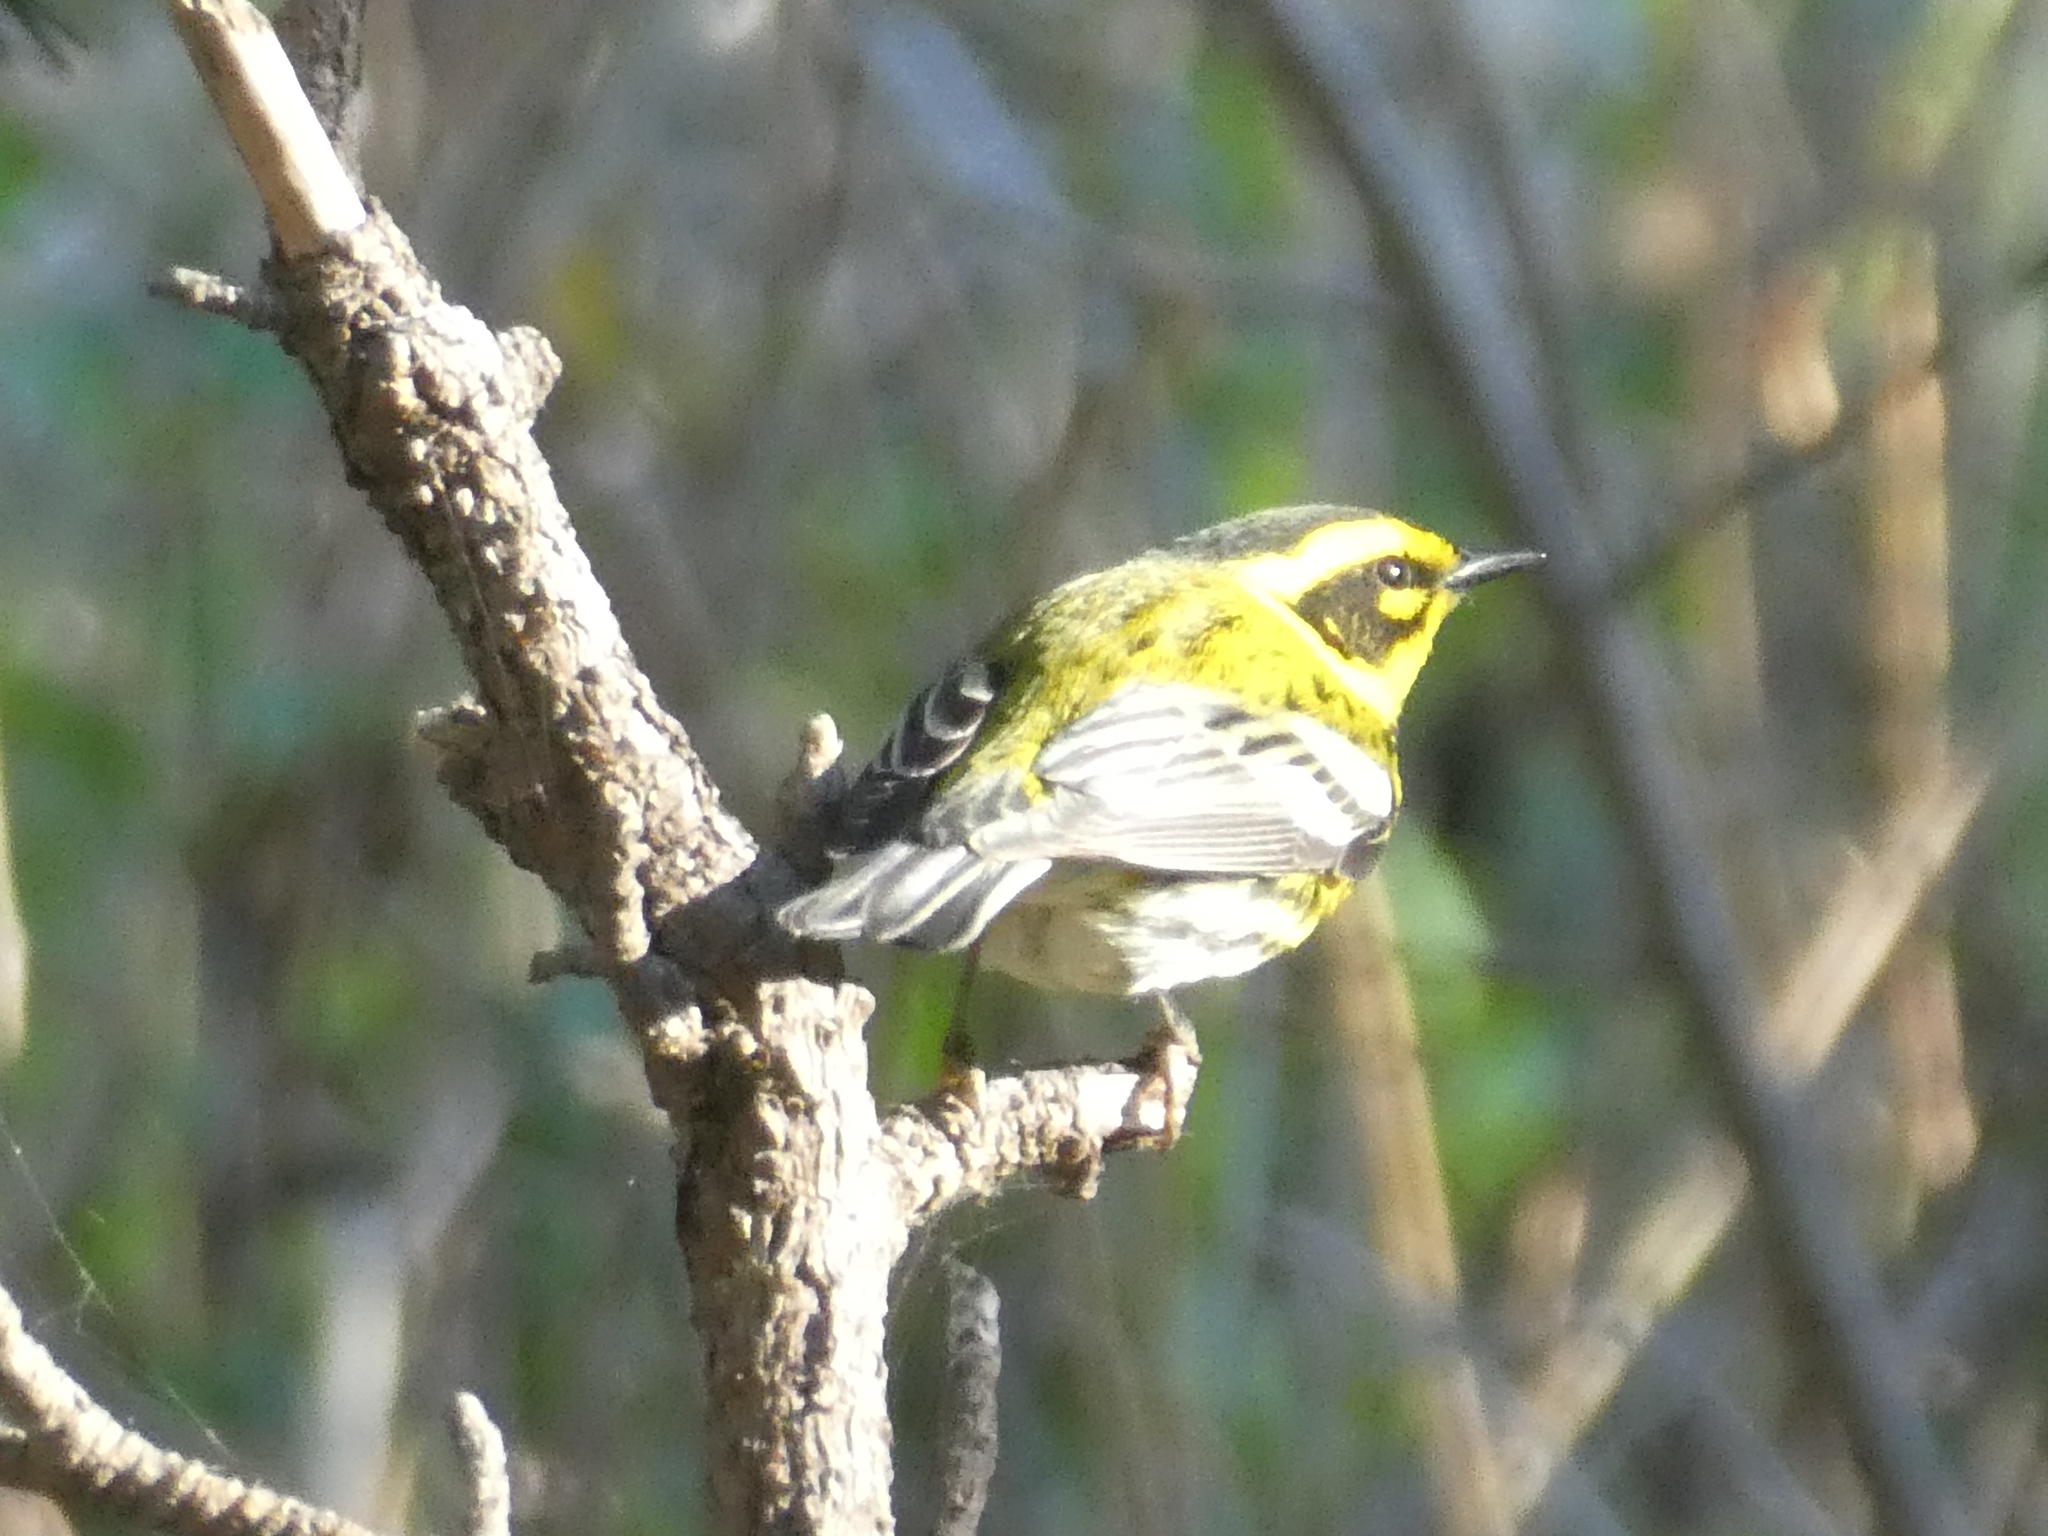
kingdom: Animalia
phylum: Chordata
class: Aves
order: Passeriformes
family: Parulidae
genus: Setophaga
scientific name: Setophaga townsendi
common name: Townsend's warbler
